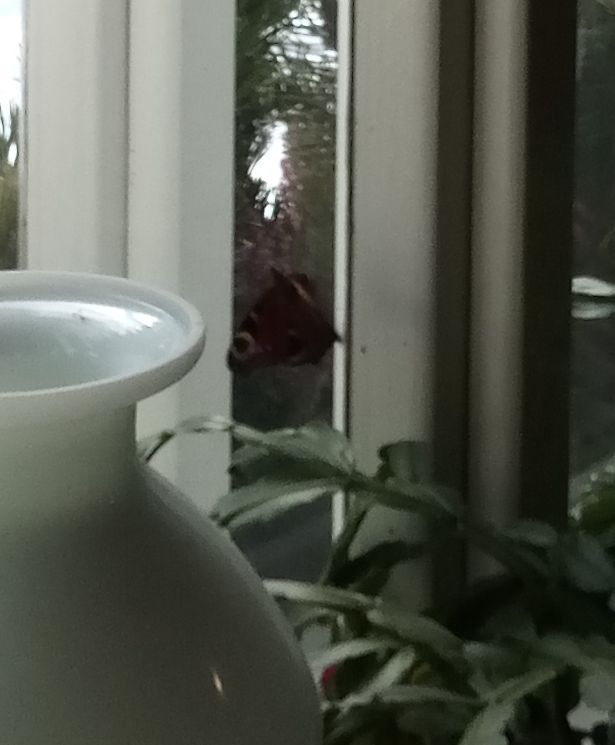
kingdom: Animalia
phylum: Arthropoda
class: Insecta
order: Lepidoptera
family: Nymphalidae
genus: Aglais
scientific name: Aglais io
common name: Peacock
